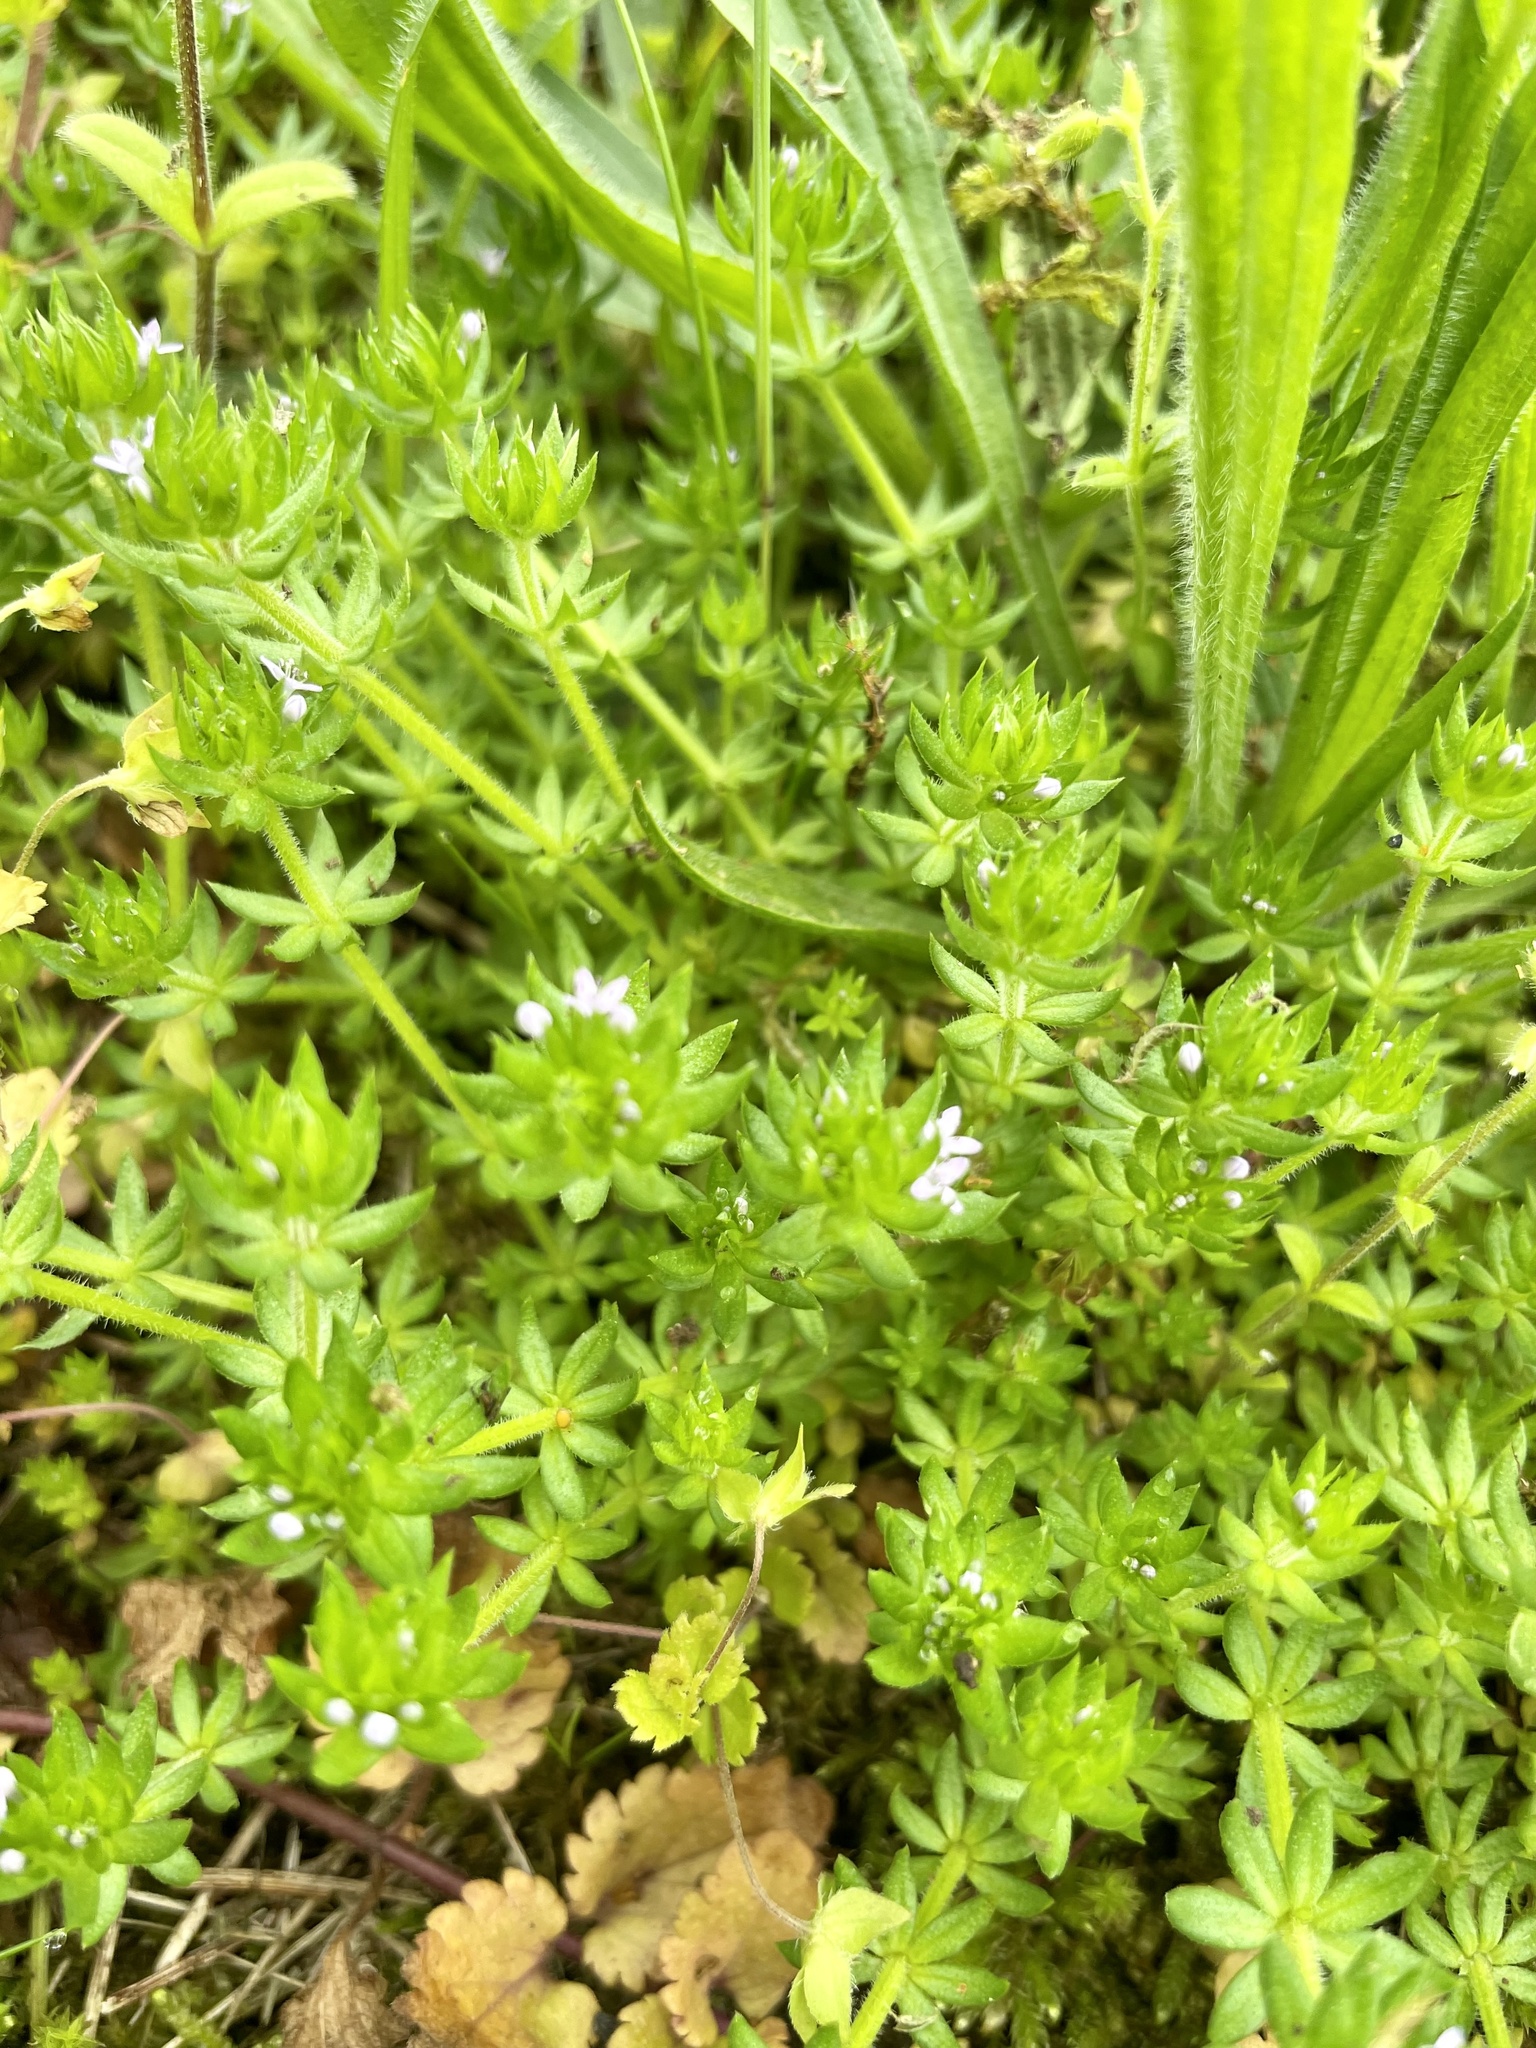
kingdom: Plantae
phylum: Tracheophyta
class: Magnoliopsida
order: Gentianales
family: Rubiaceae
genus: Sherardia
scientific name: Sherardia arvensis
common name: Field madder
